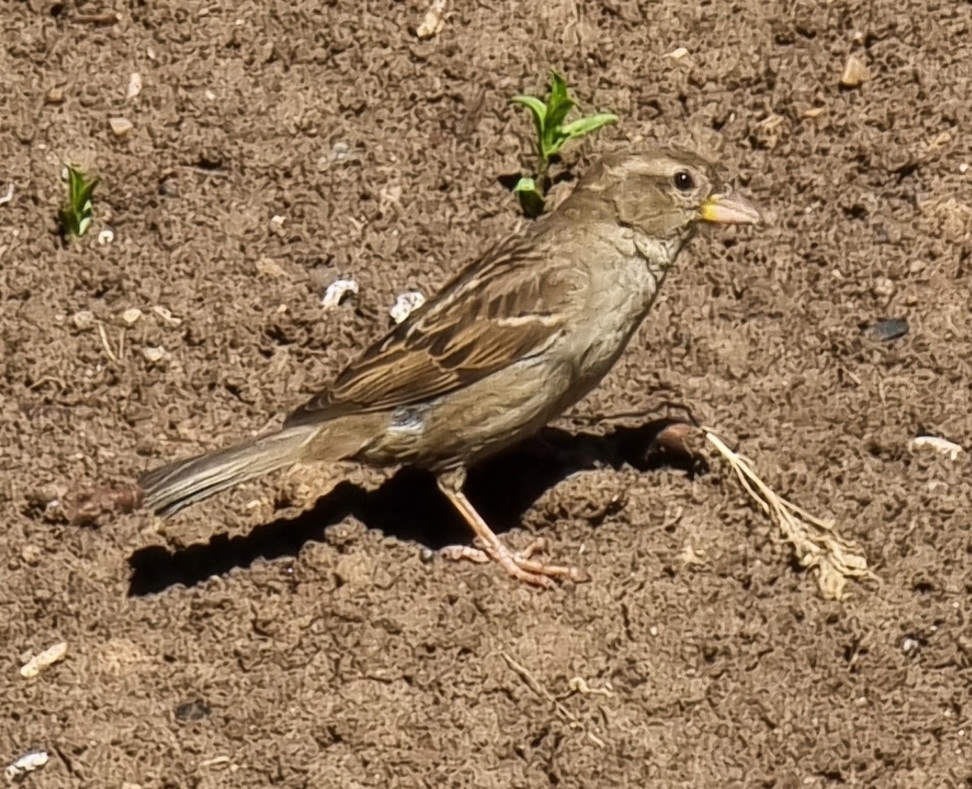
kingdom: Animalia
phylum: Chordata
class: Aves
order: Passeriformes
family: Passeridae
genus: Passer
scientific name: Passer domesticus
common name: House sparrow
